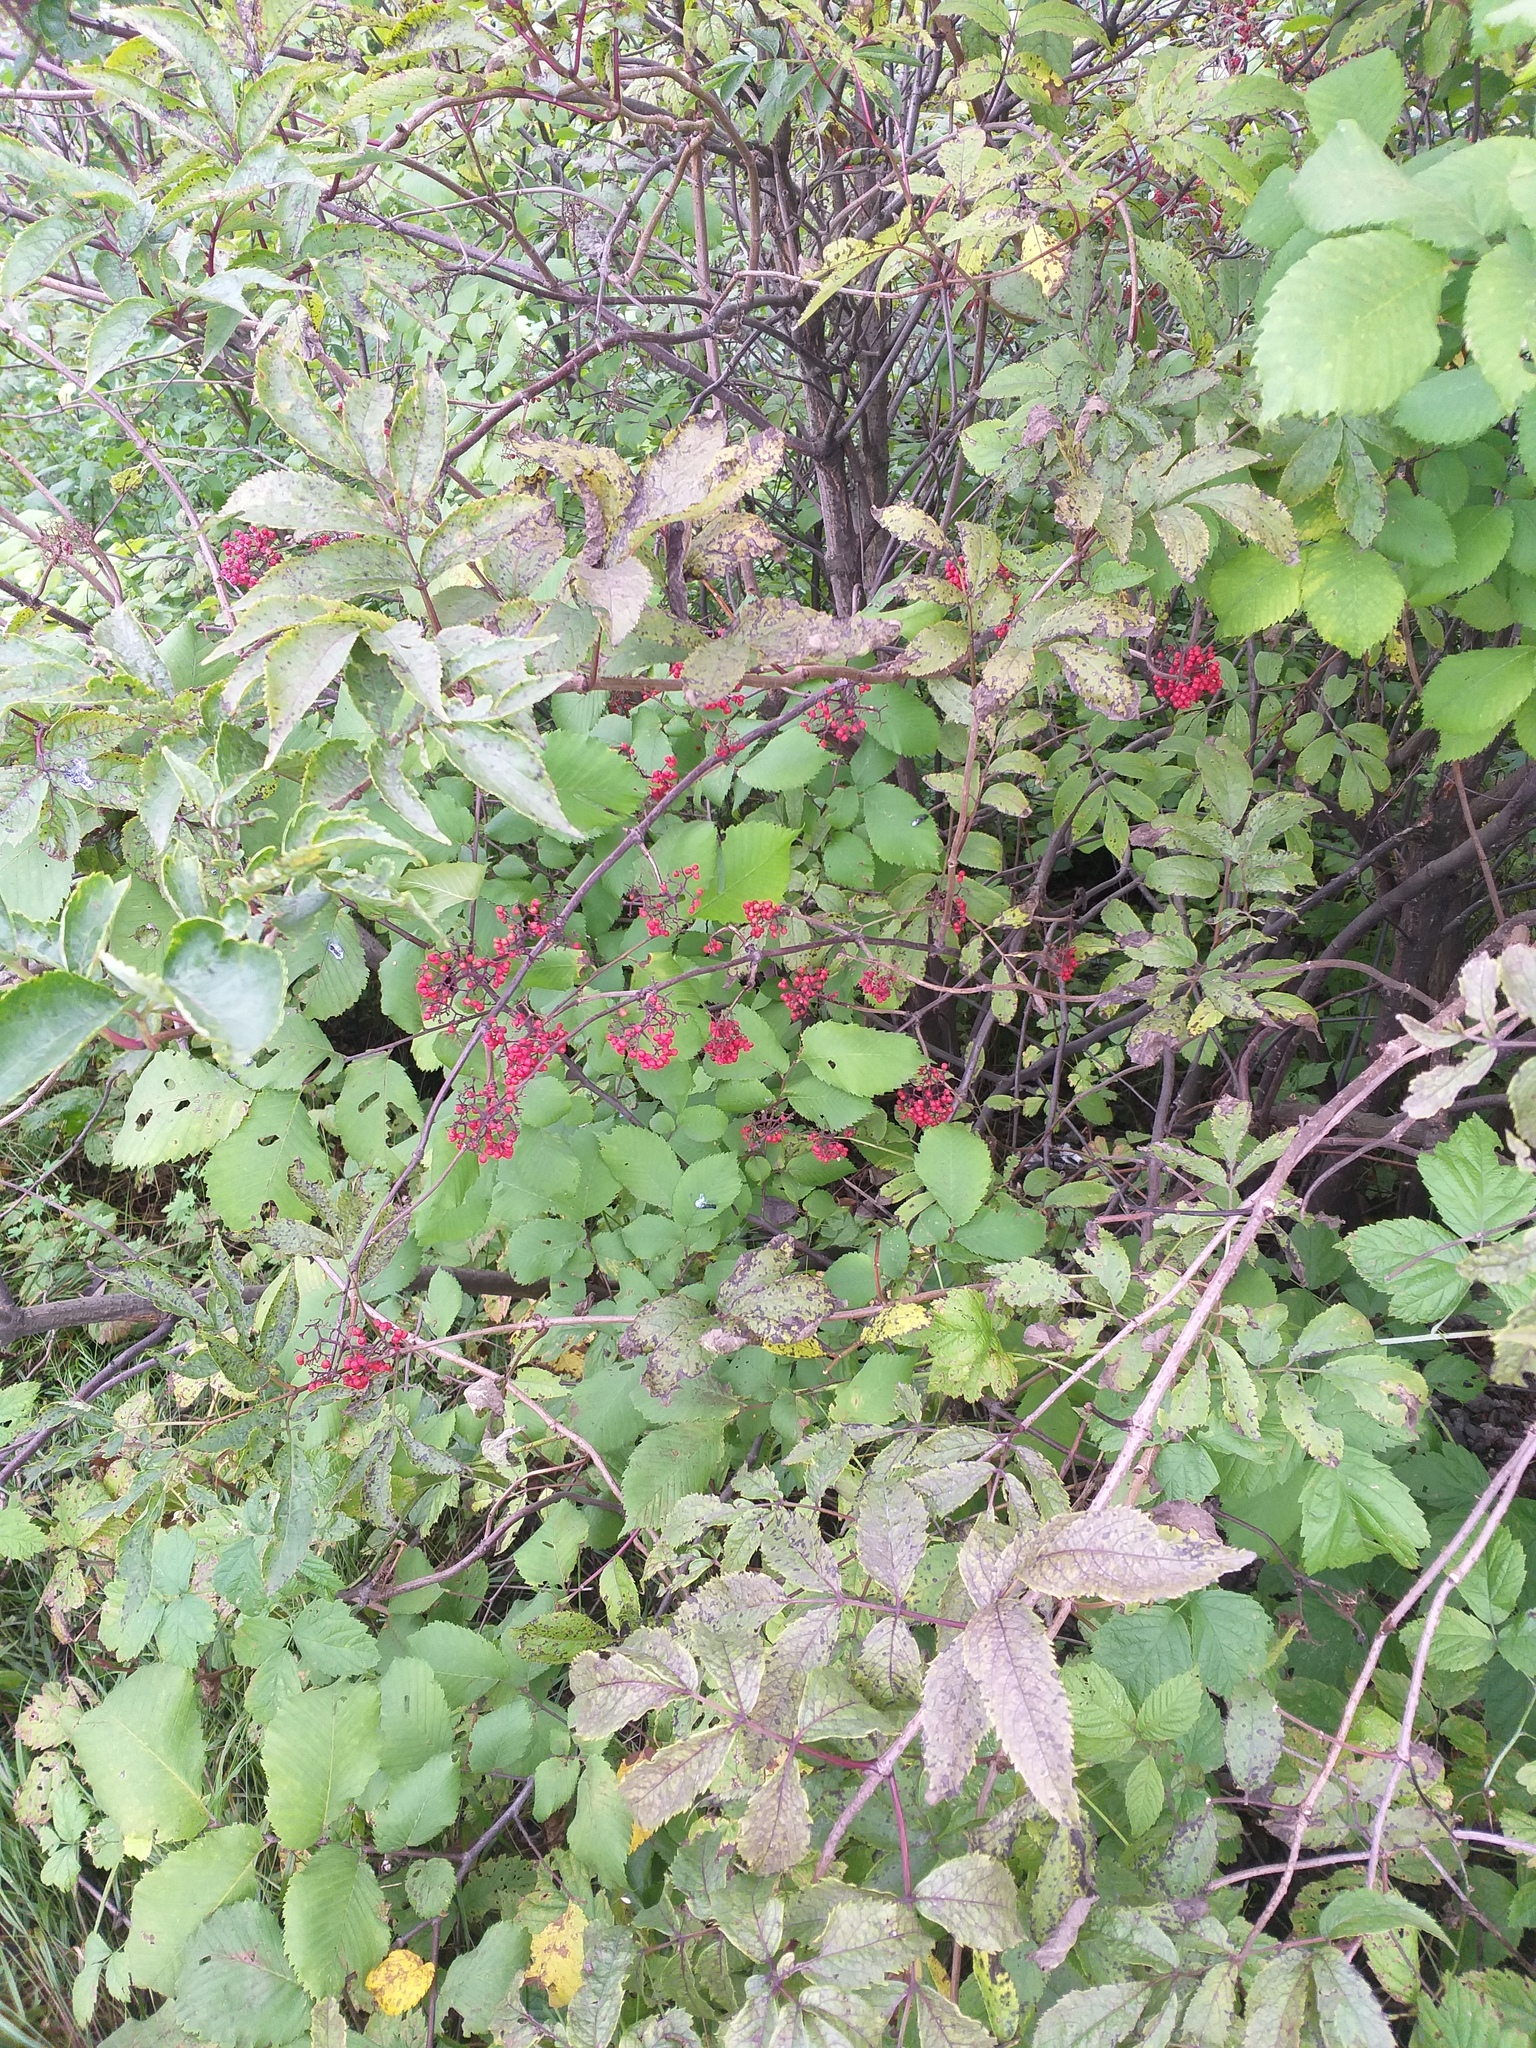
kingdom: Plantae
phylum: Tracheophyta
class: Magnoliopsida
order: Dipsacales
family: Viburnaceae
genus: Sambucus
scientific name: Sambucus racemosa
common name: Red-berried elder
